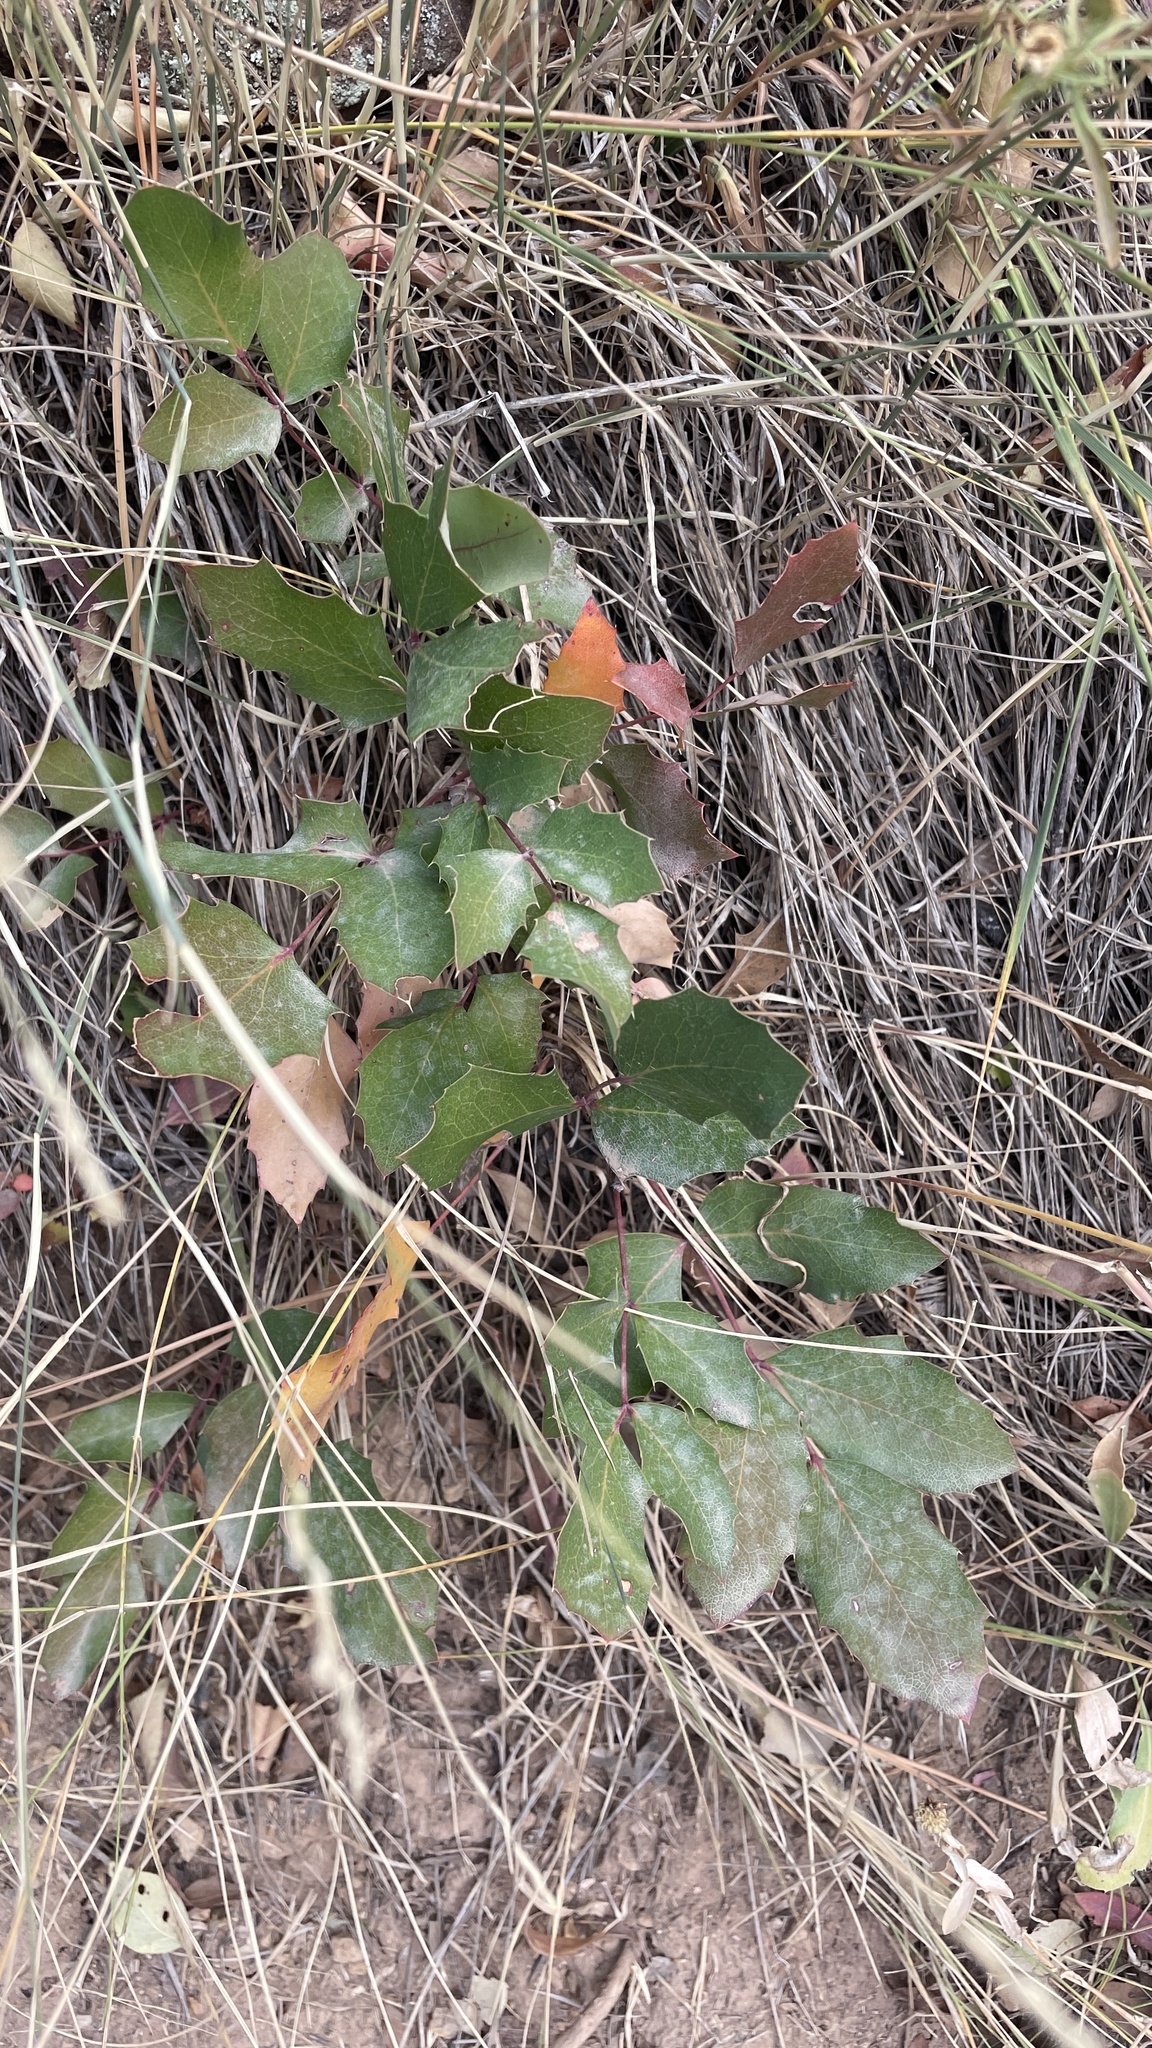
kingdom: Plantae
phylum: Tracheophyta
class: Magnoliopsida
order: Ranunculales
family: Berberidaceae
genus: Mahonia
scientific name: Mahonia repens
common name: Creeping oregon-grape
